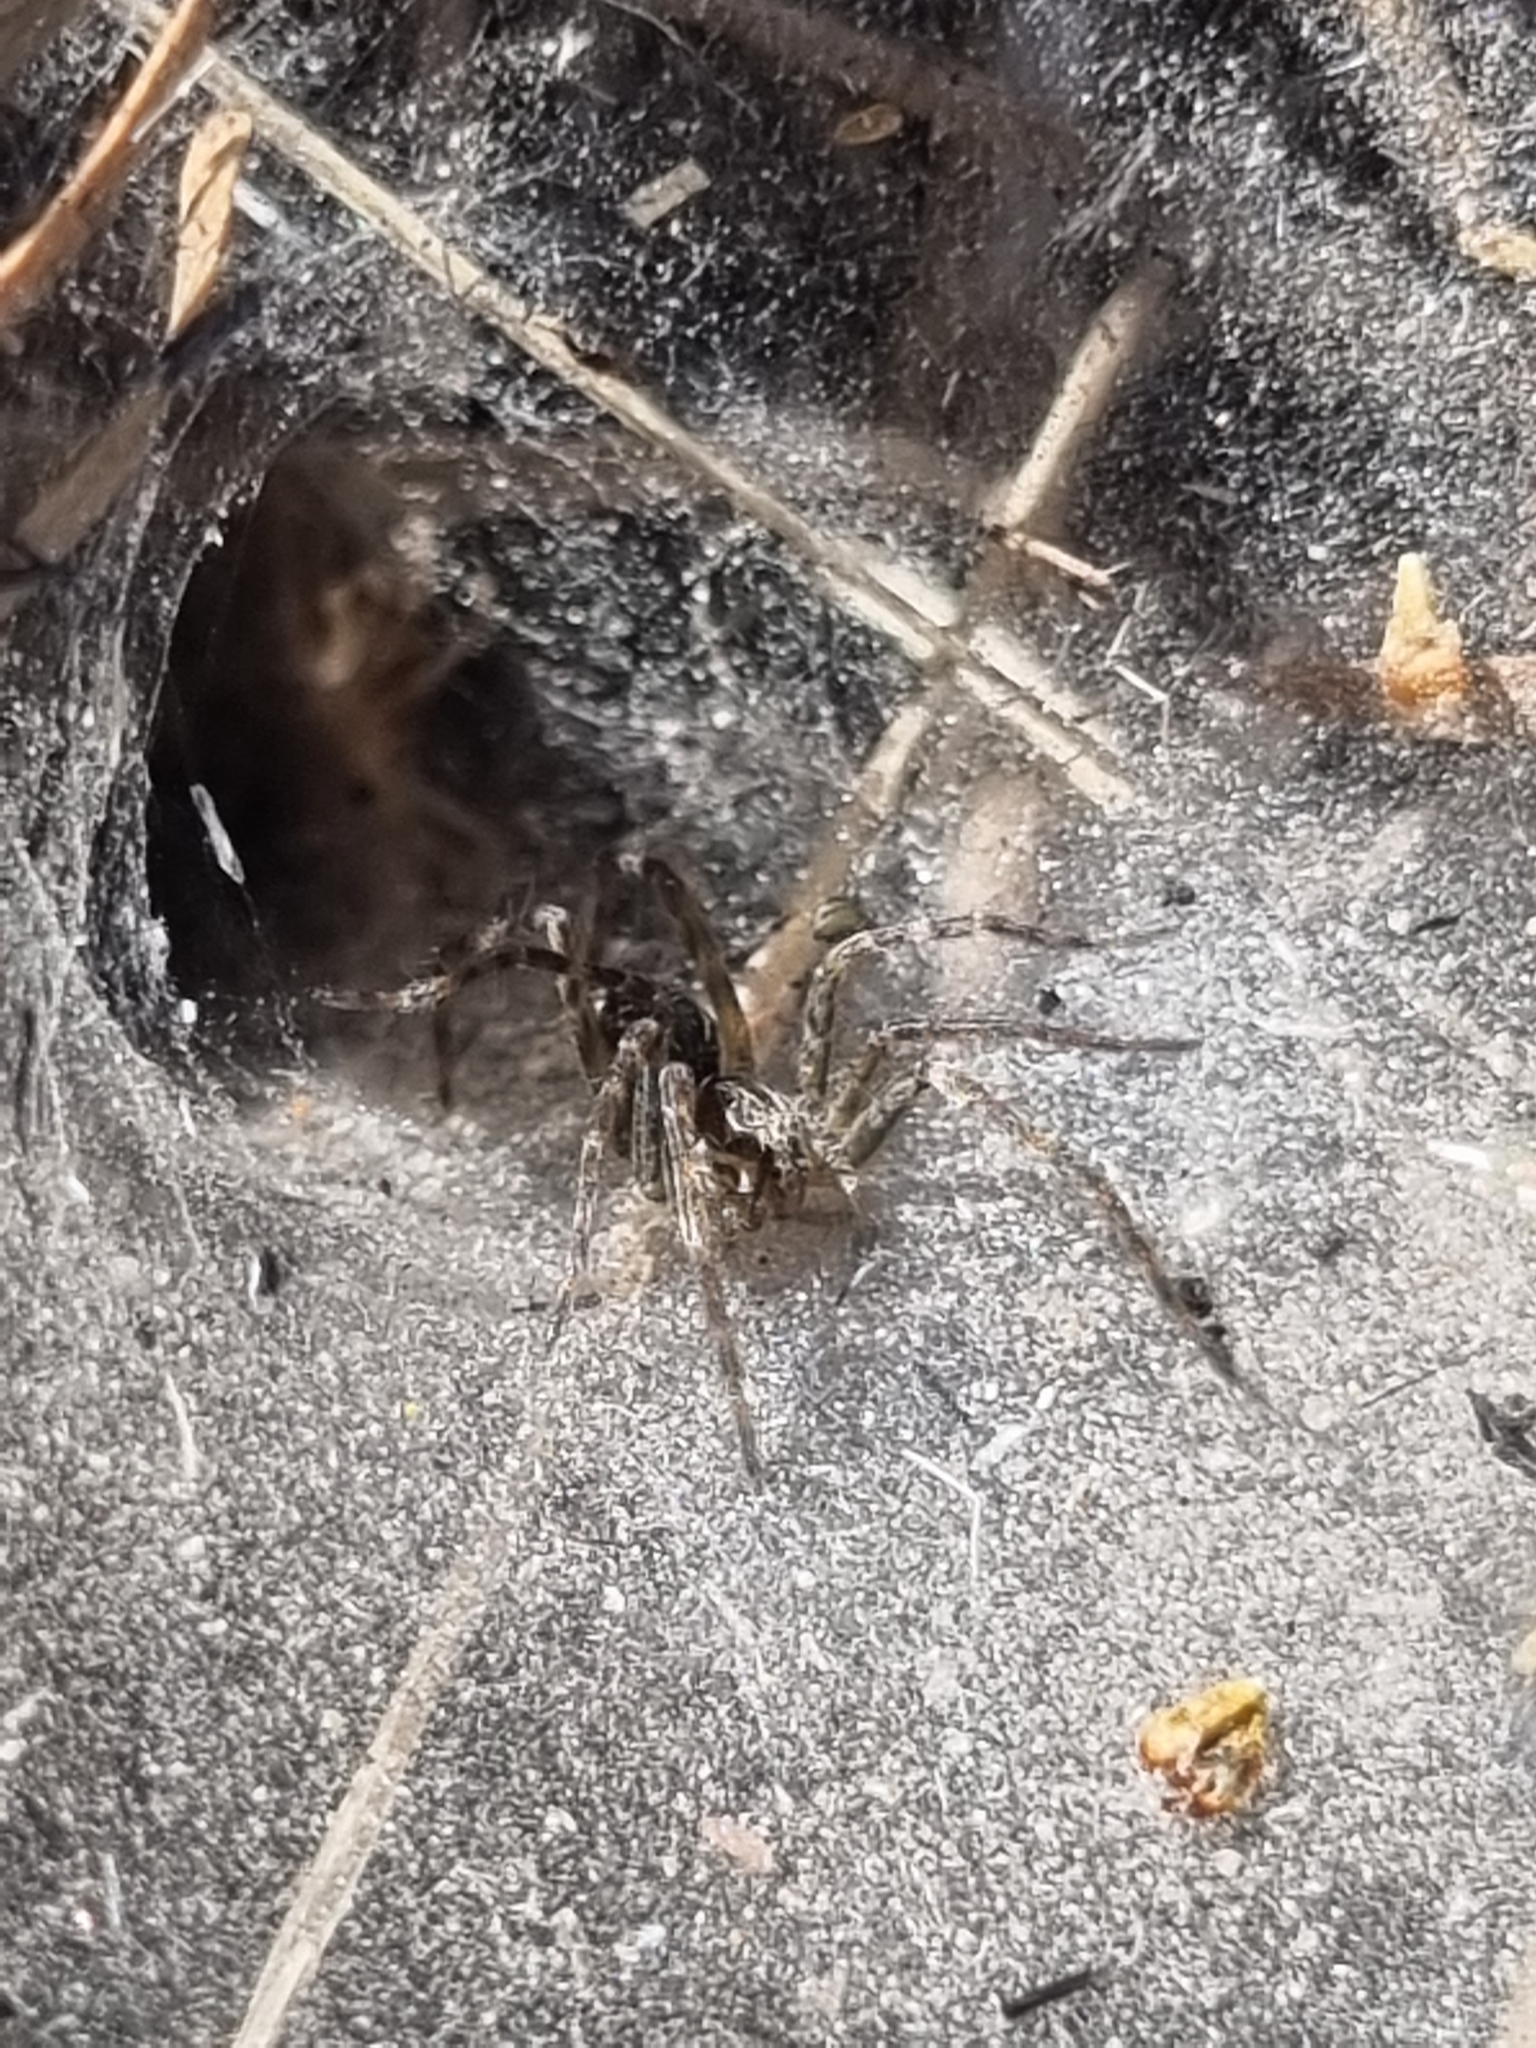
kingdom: Animalia
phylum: Arthropoda
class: Arachnida
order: Araneae
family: Lycosidae
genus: Aglaoctenus
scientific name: Aglaoctenus lagotis
